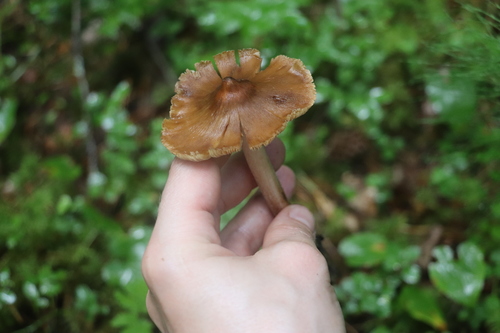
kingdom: Fungi
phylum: Basidiomycota
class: Agaricomycetes
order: Agaricales
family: Inocybaceae
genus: Inosperma
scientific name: Inosperma lanatodiscum
